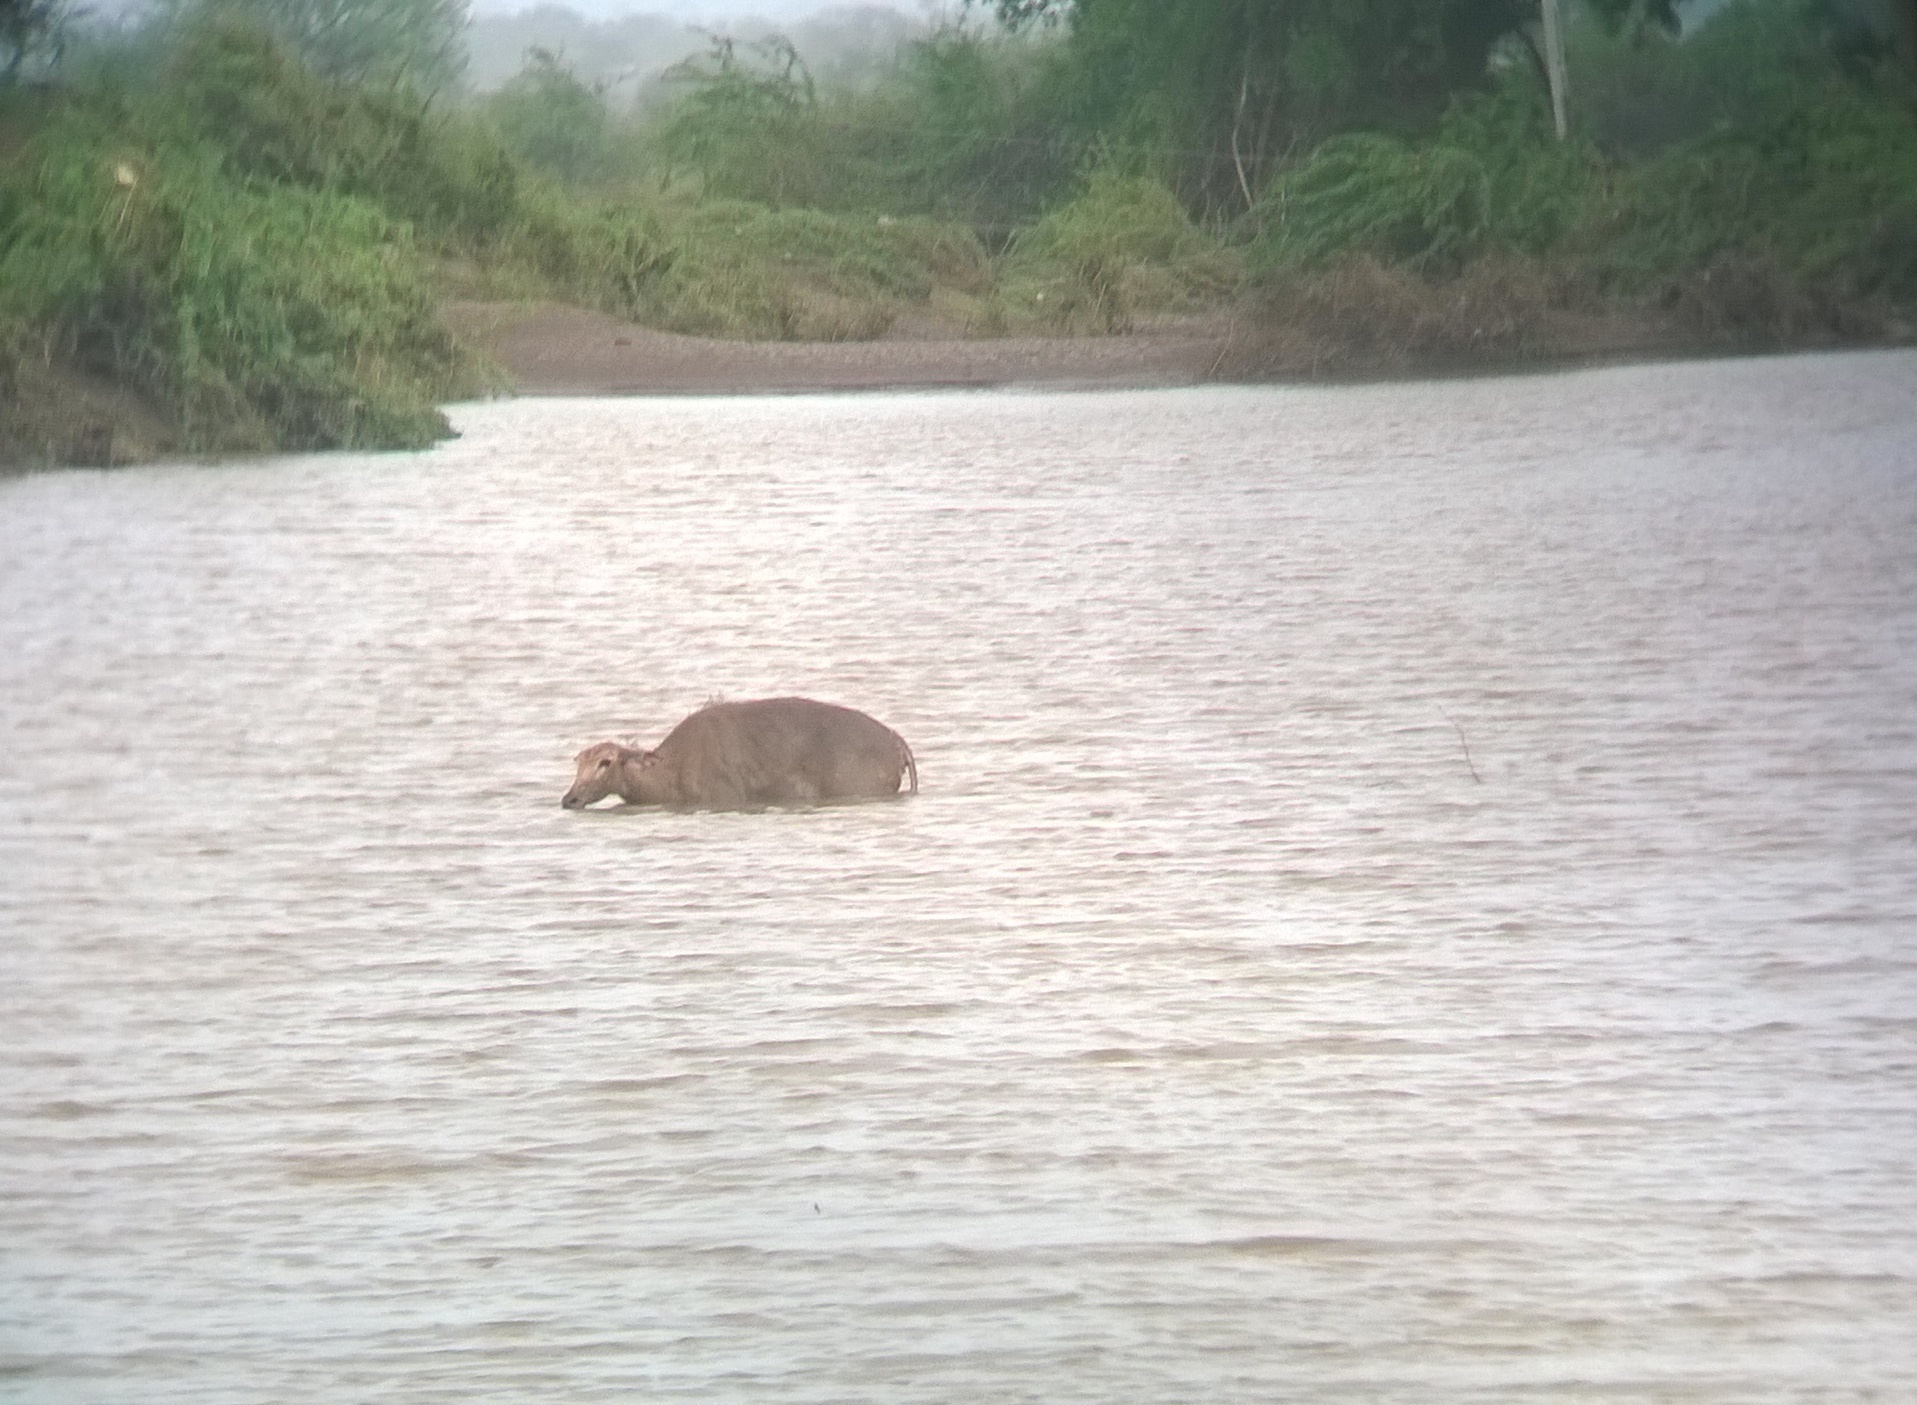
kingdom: Animalia
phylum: Chordata
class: Mammalia
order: Artiodactyla
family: Bovidae
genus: Boselaphus
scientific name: Boselaphus tragocamelus
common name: Nilgai
